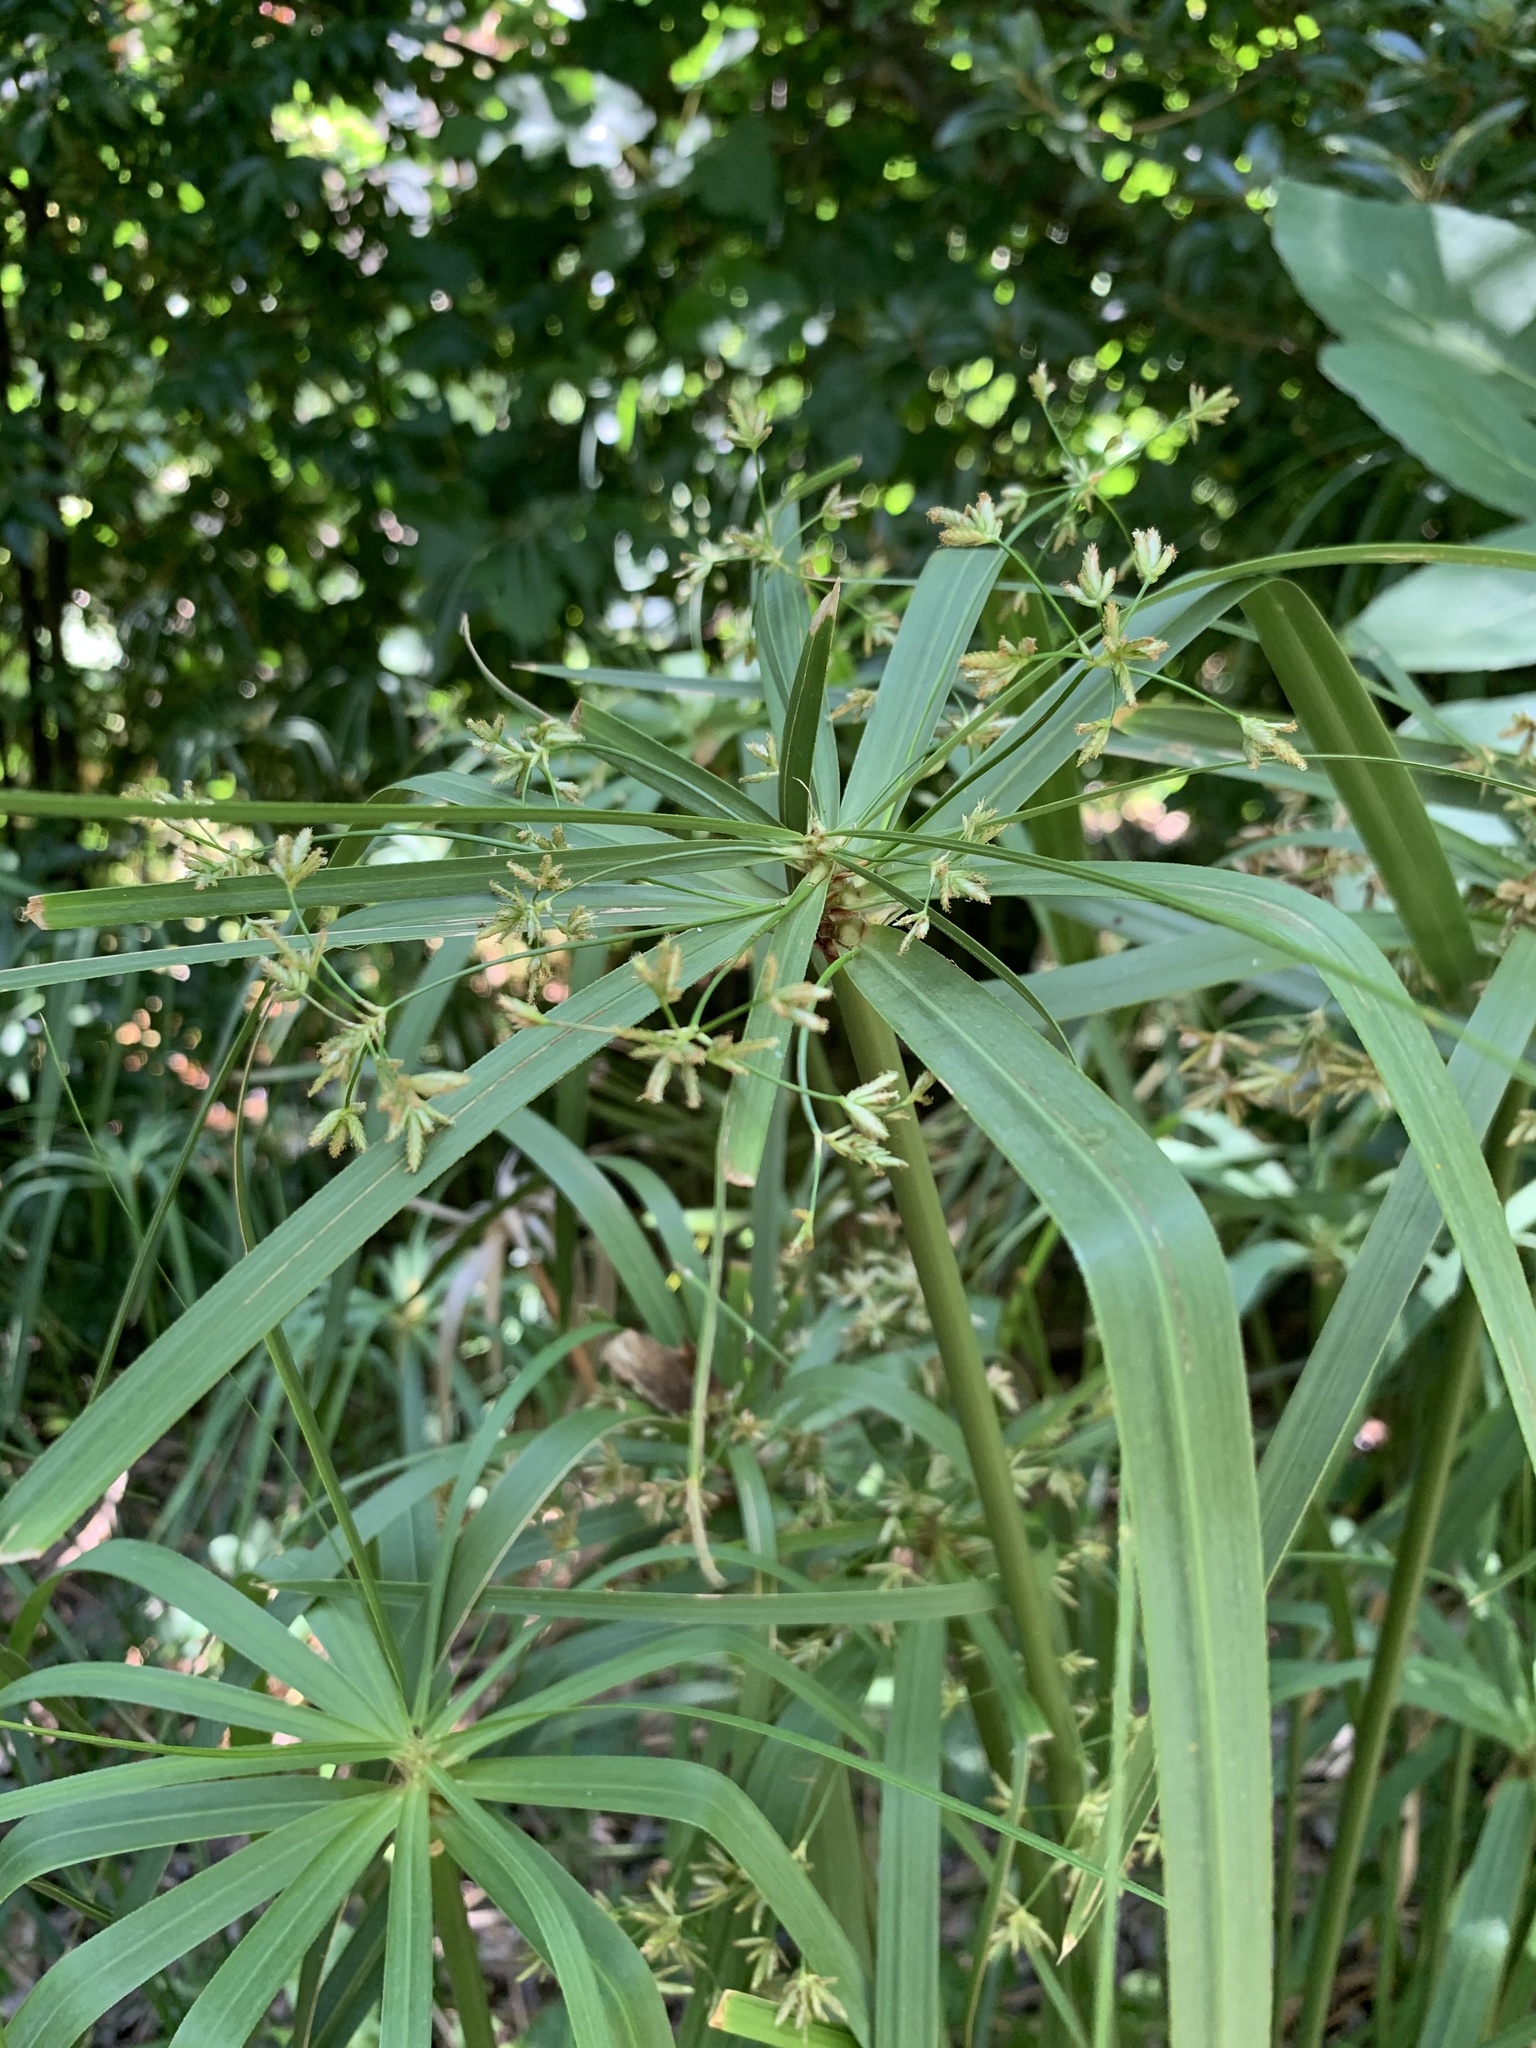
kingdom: Plantae
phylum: Tracheophyta
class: Liliopsida
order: Poales
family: Cyperaceae
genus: Cyperus
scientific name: Cyperus textilis
